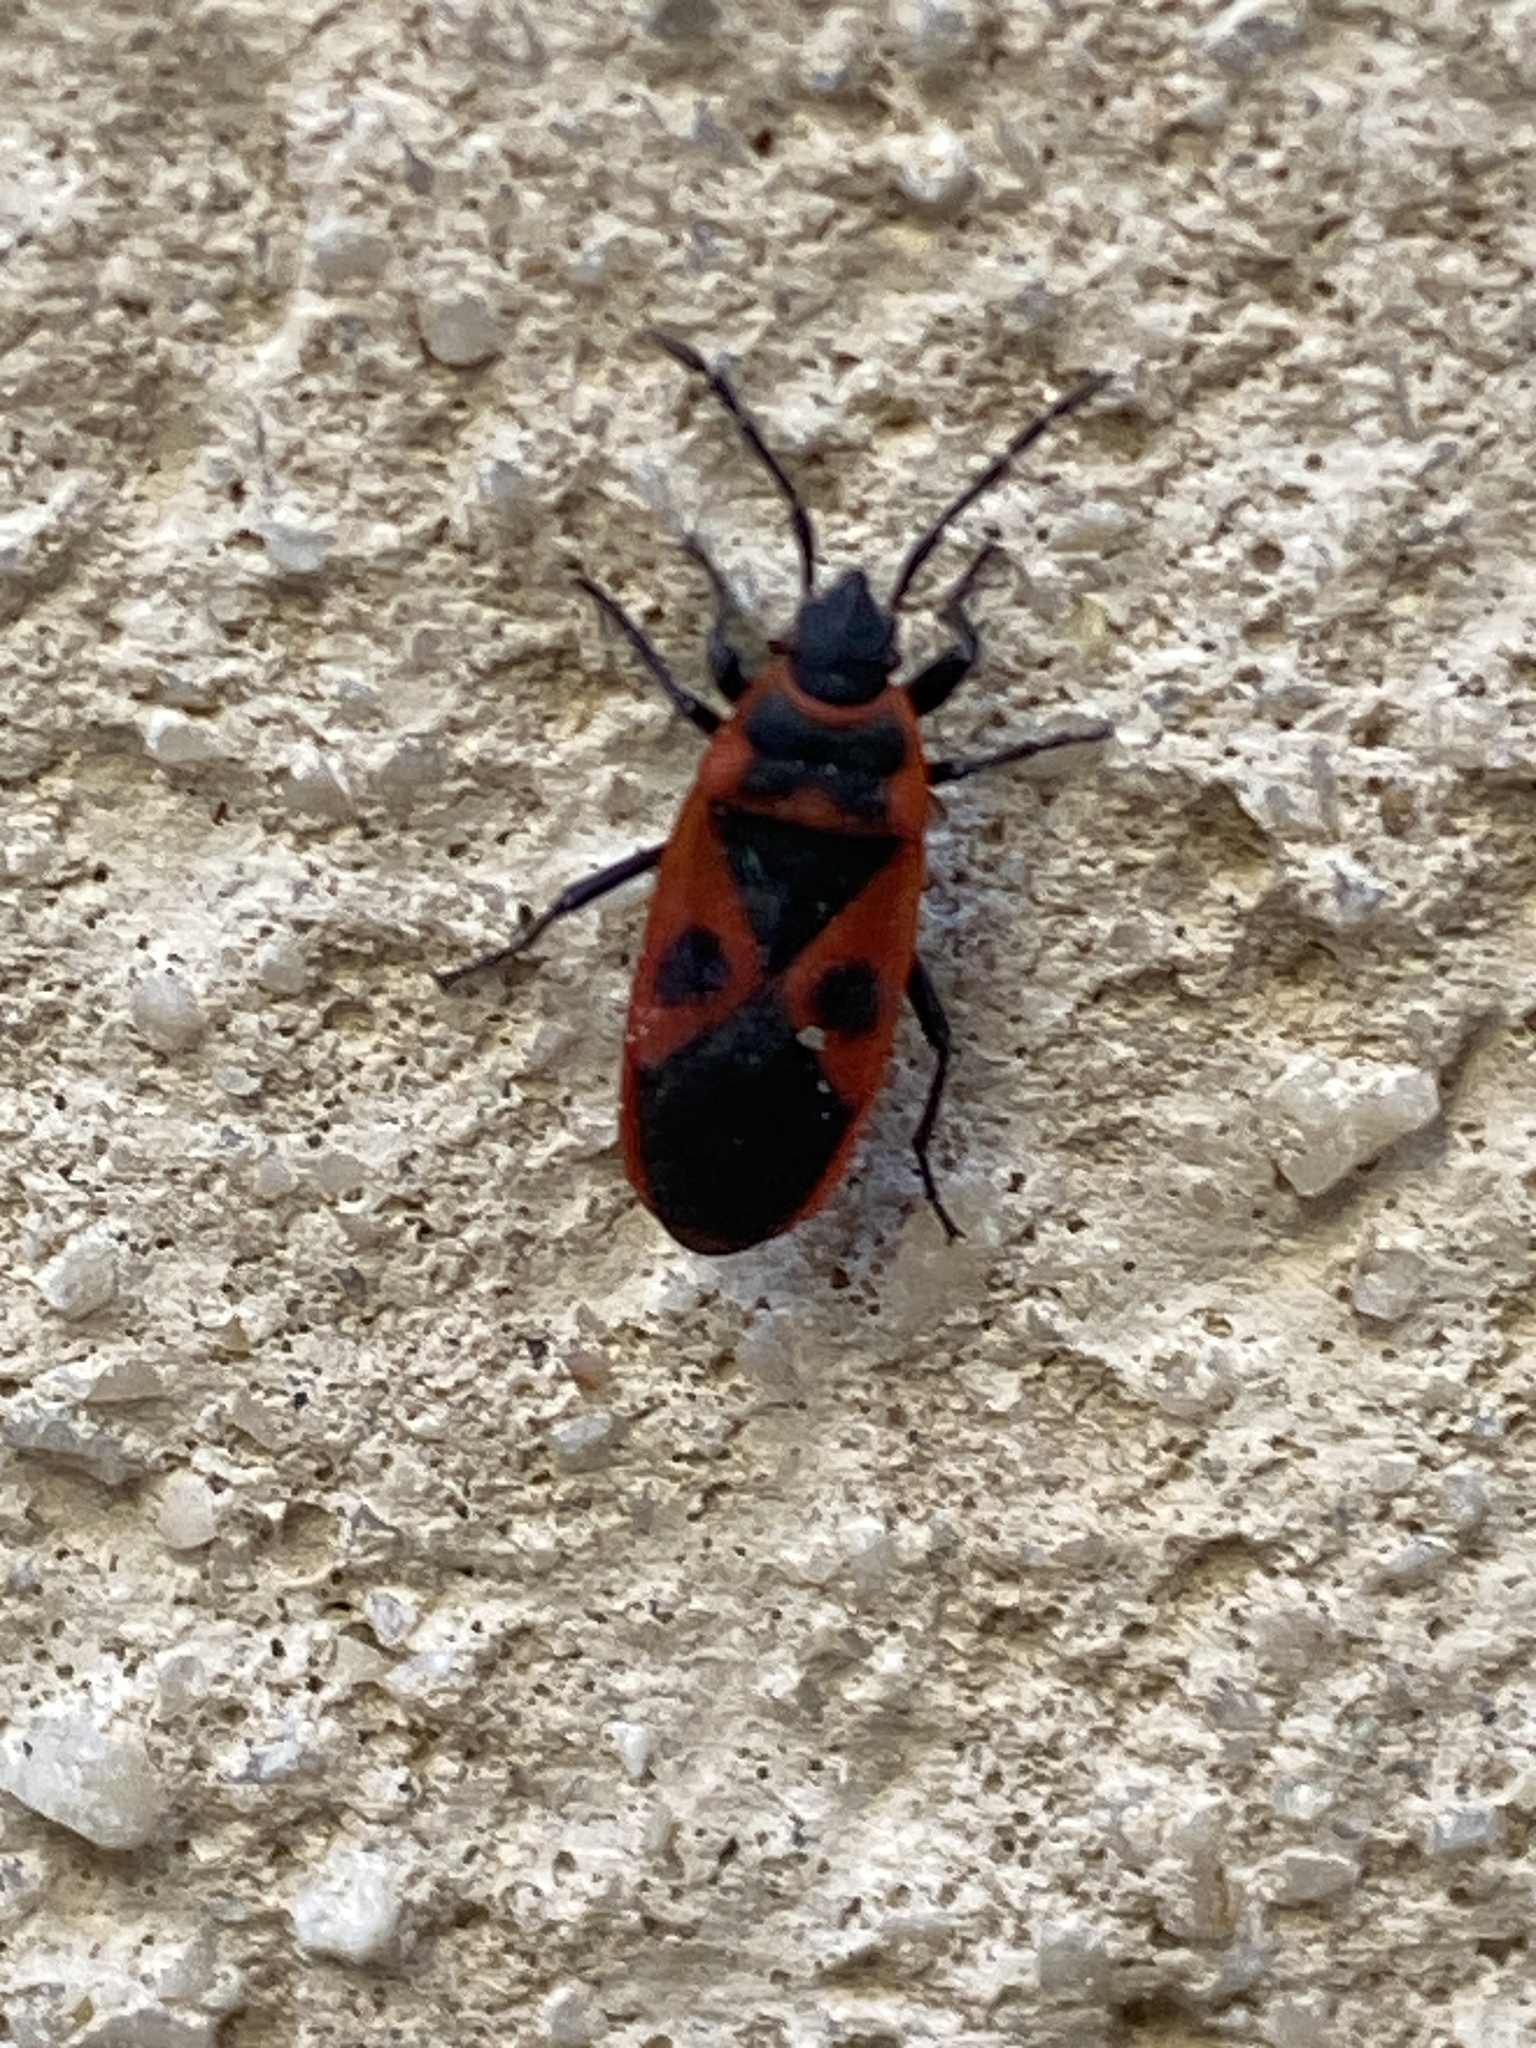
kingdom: Animalia
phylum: Arthropoda
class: Insecta
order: Hemiptera
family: Pyrrhocoridae
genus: Scantius
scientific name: Scantius aegyptius
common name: Red bug
